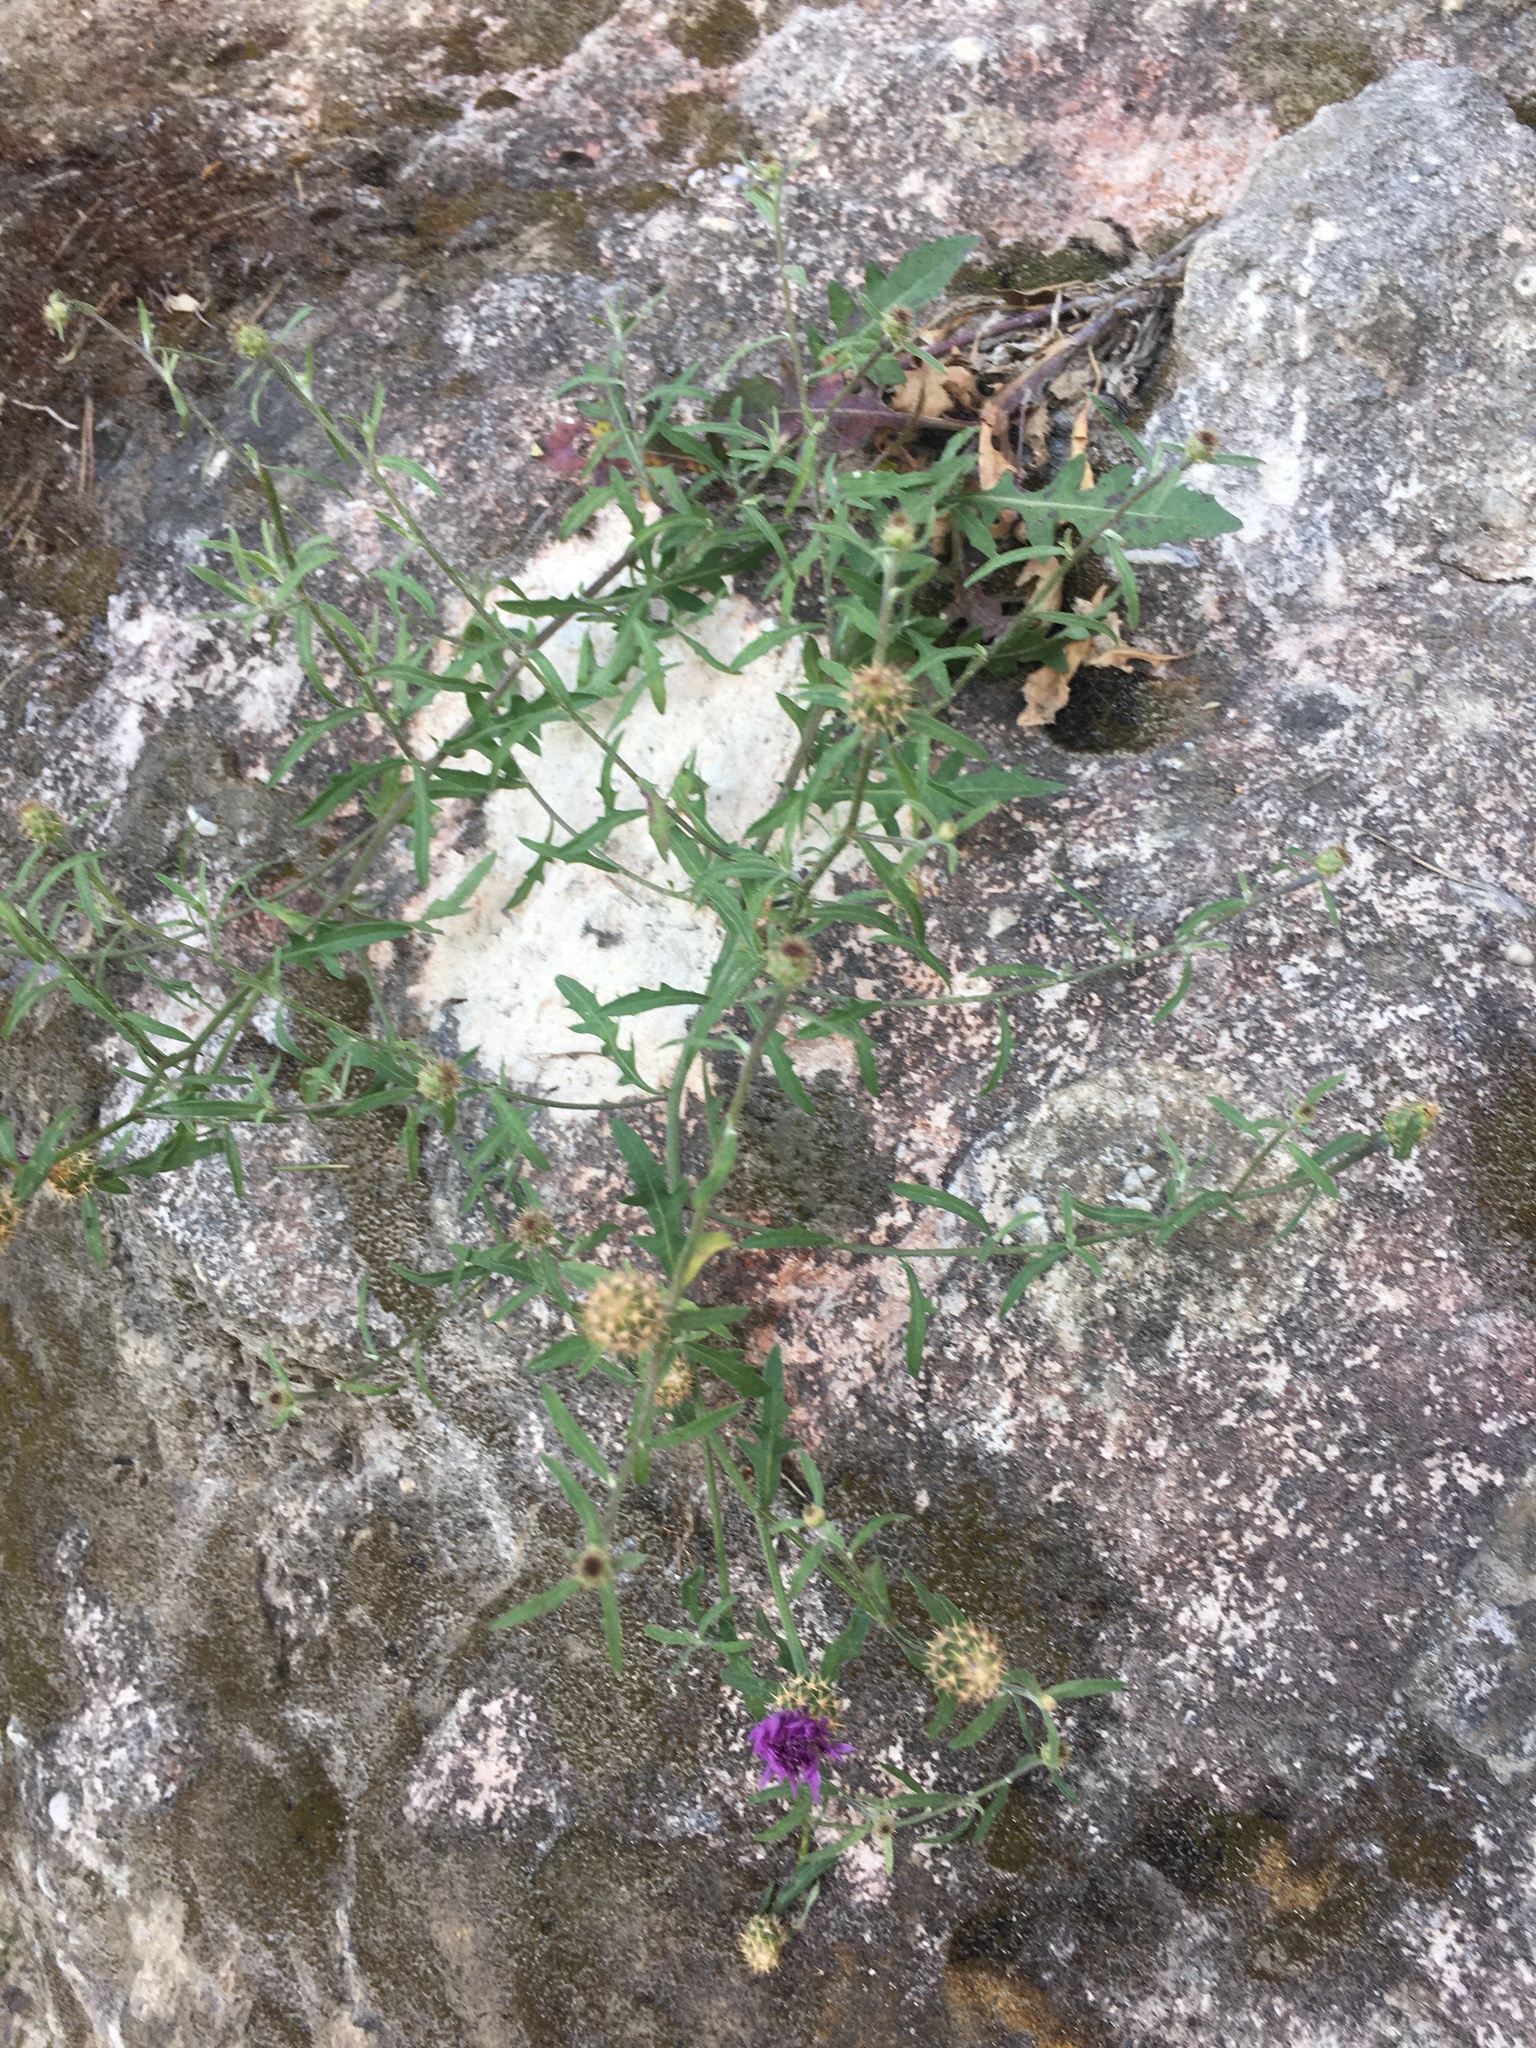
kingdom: Plantae
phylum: Tracheophyta
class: Magnoliopsida
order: Asterales
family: Asteraceae
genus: Centaurea
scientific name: Centaurea aspera
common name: Rough star-thistle
